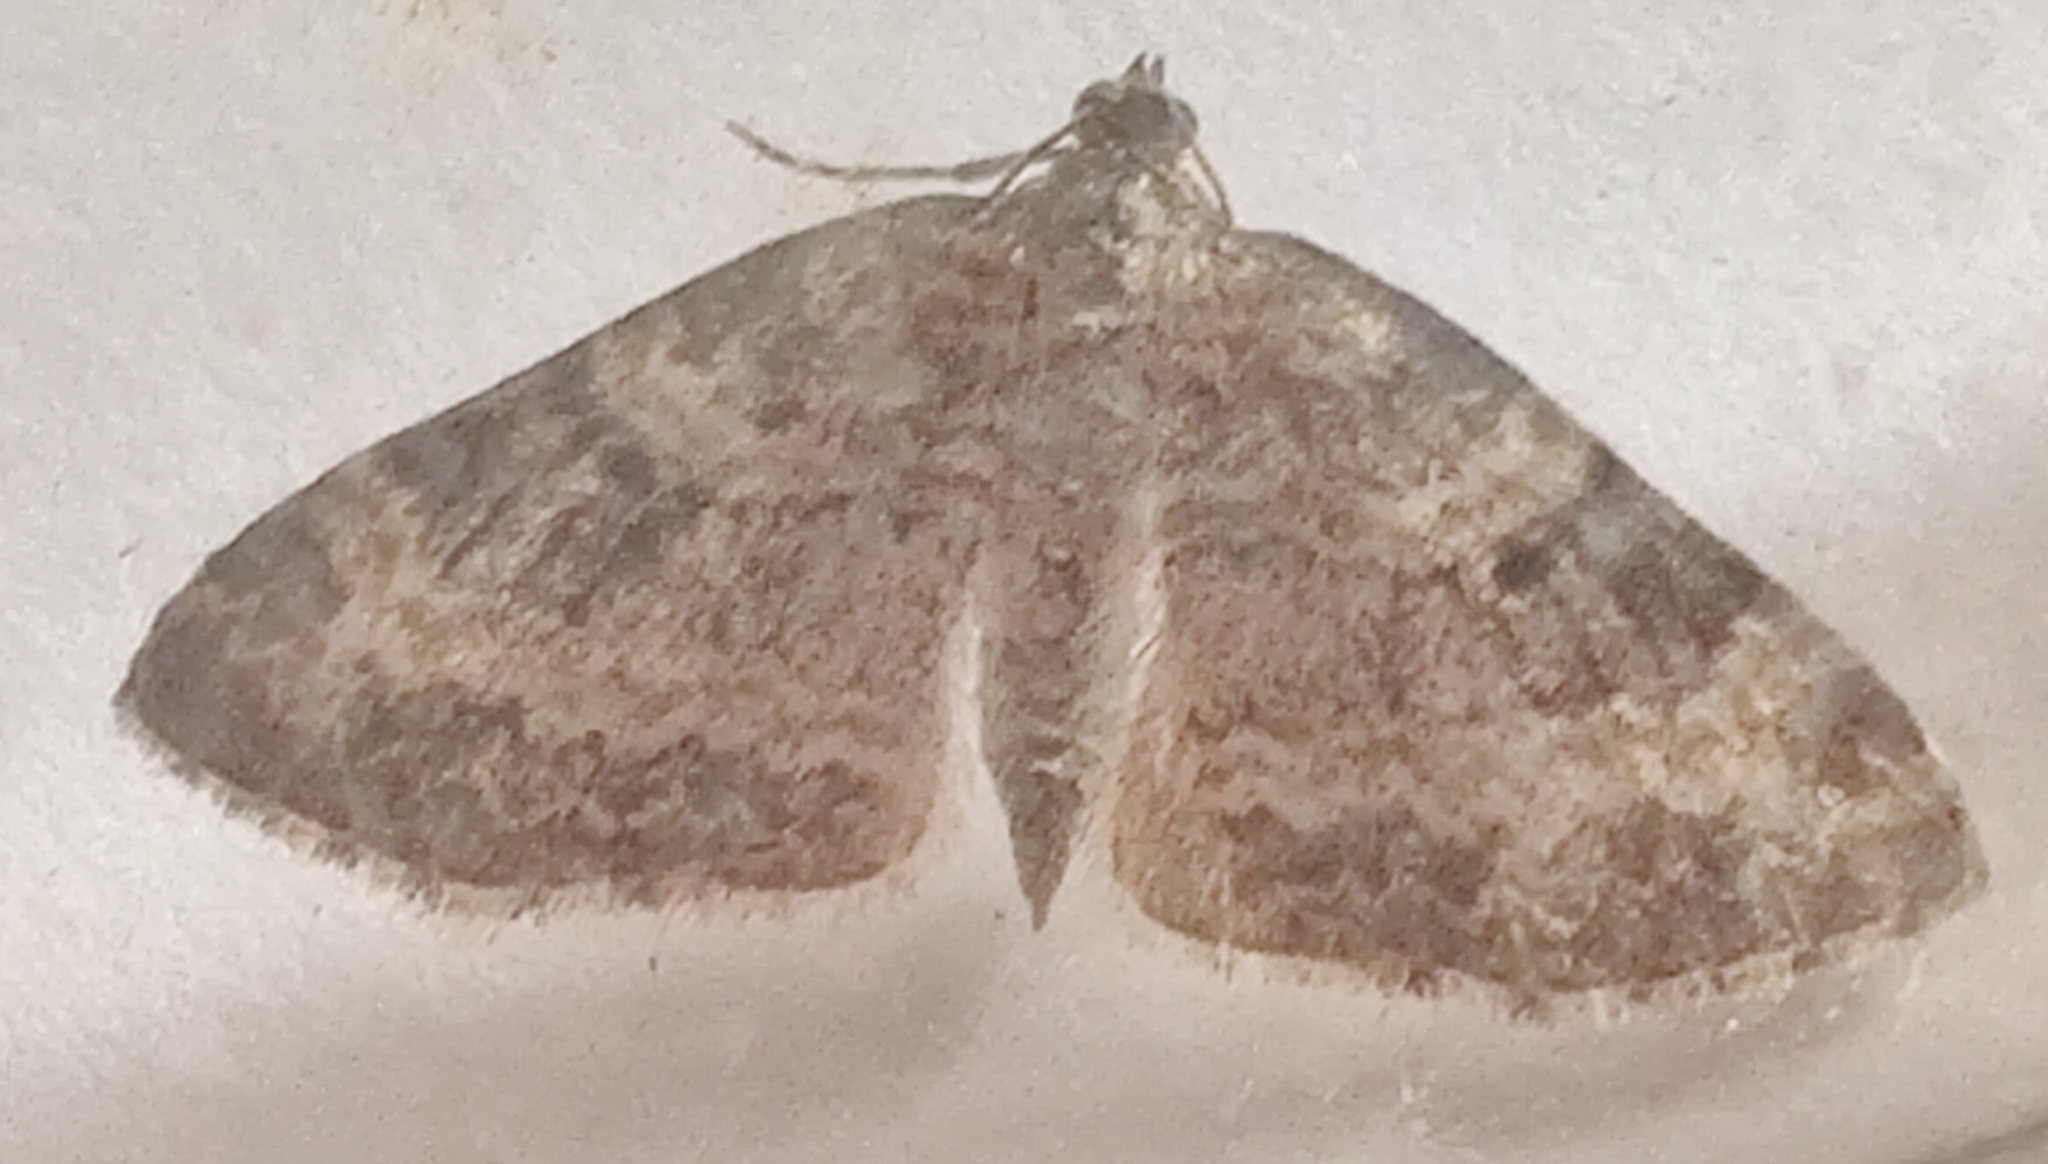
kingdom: Animalia
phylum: Arthropoda
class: Insecta
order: Lepidoptera
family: Geometridae
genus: Pterapherapteryx
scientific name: Pterapherapteryx sexalata
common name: Small seraphim
